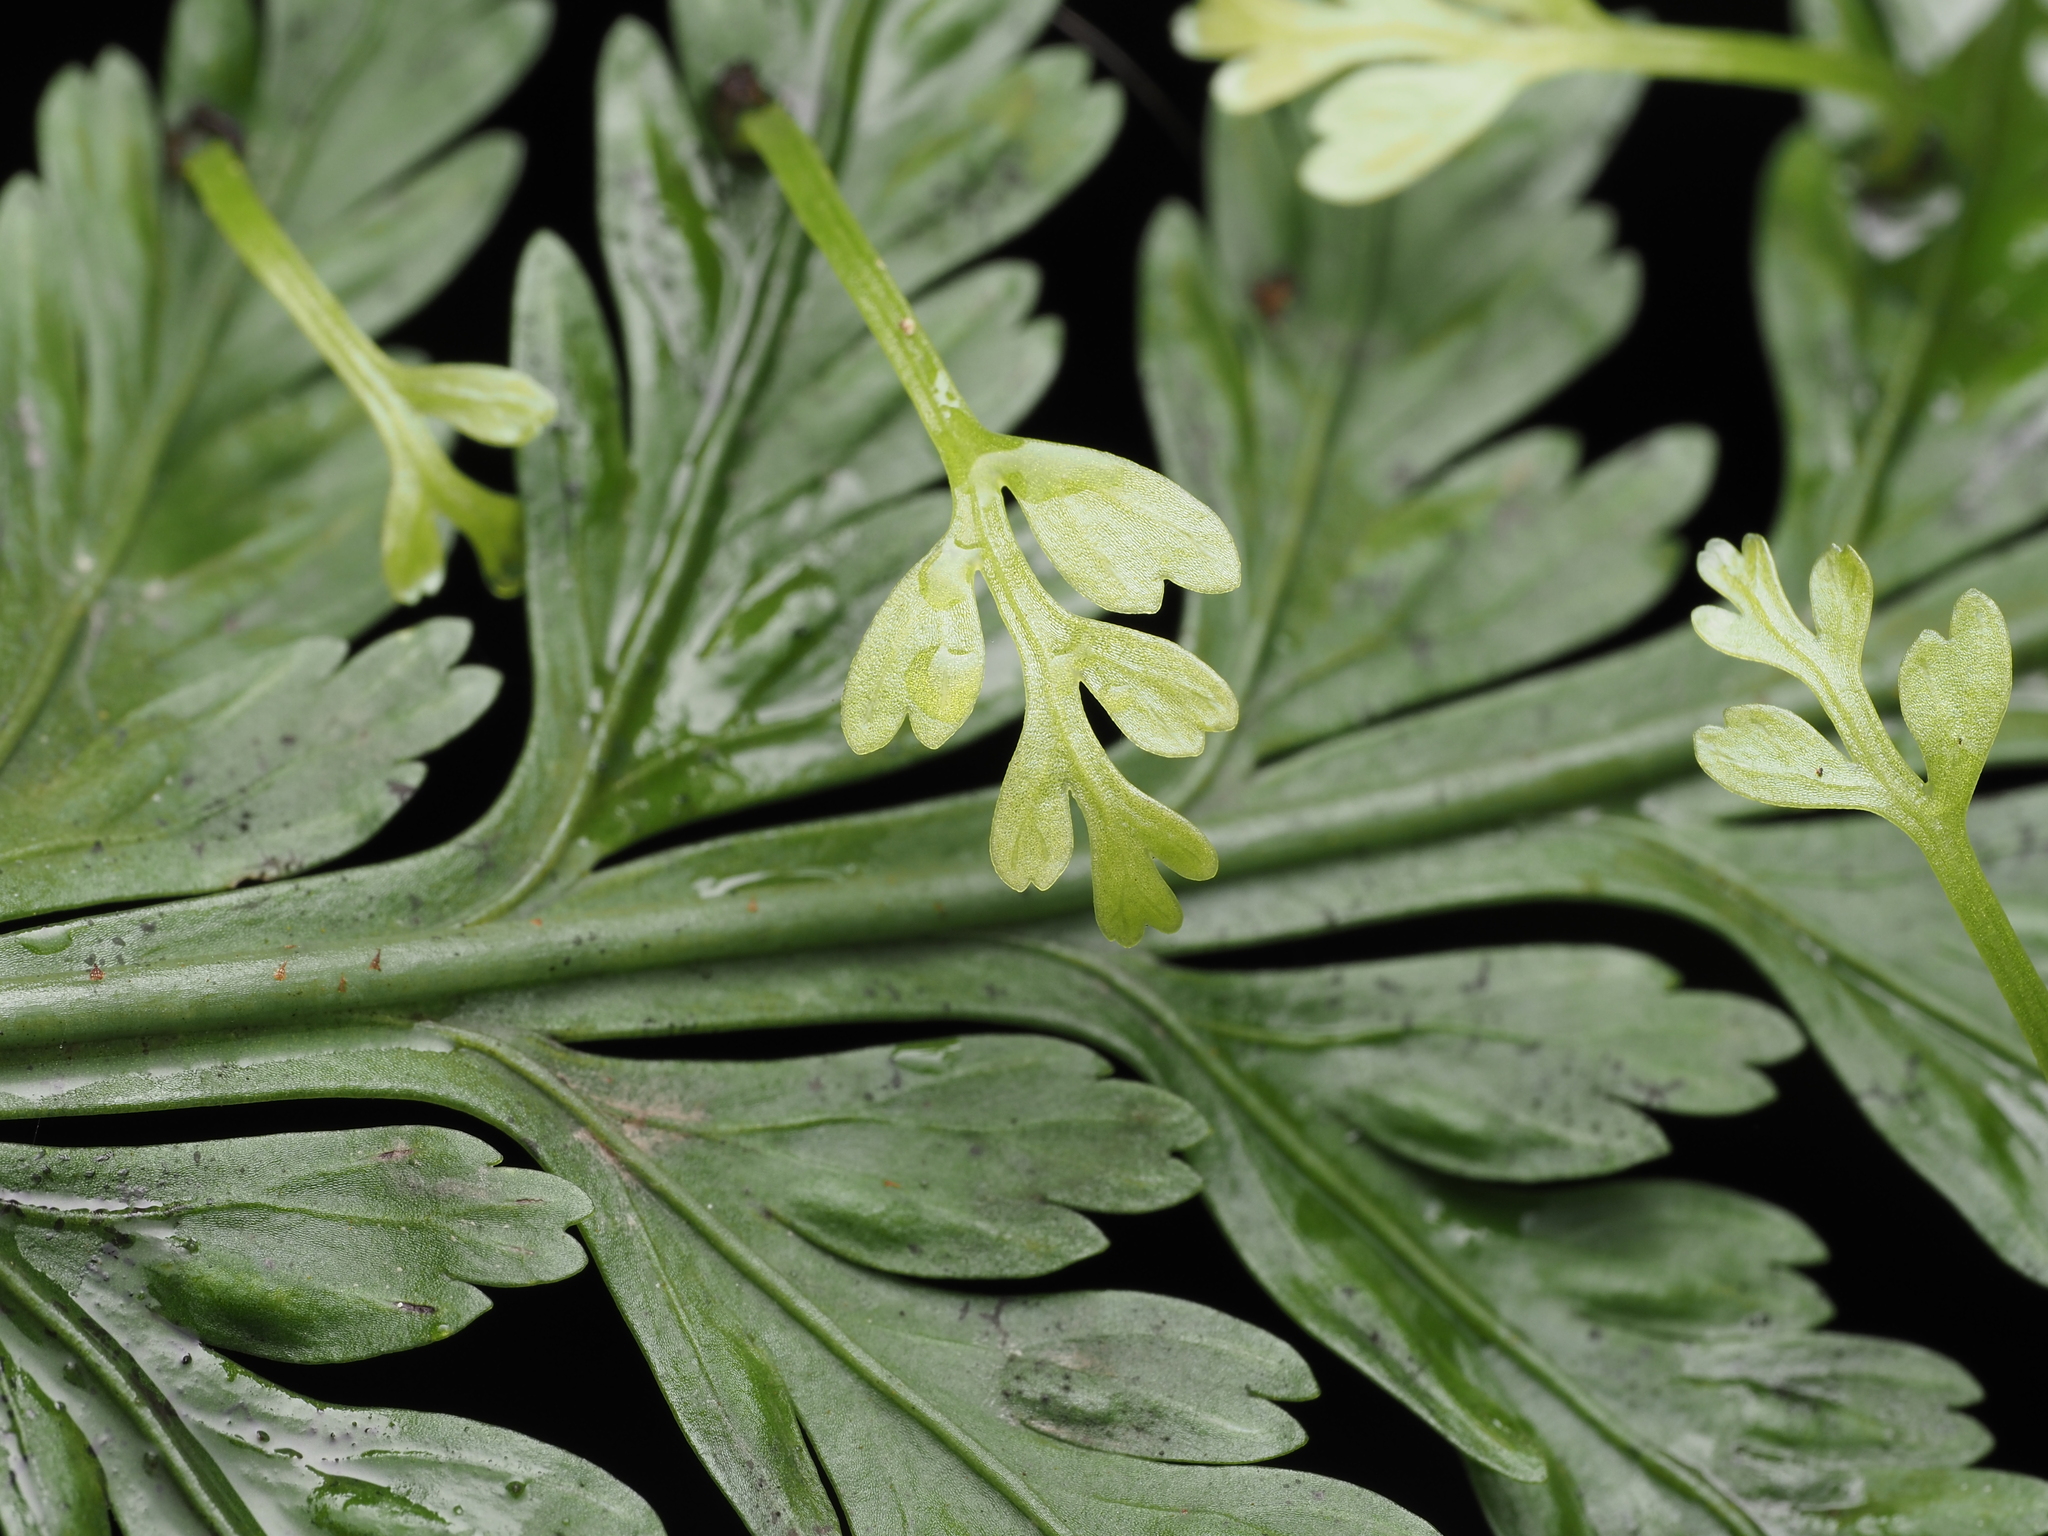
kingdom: Plantae
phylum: Tracheophyta
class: Polypodiopsida
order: Polypodiales
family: Aspleniaceae
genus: Asplenium
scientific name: Asplenium bulbiferum
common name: Mother fern
